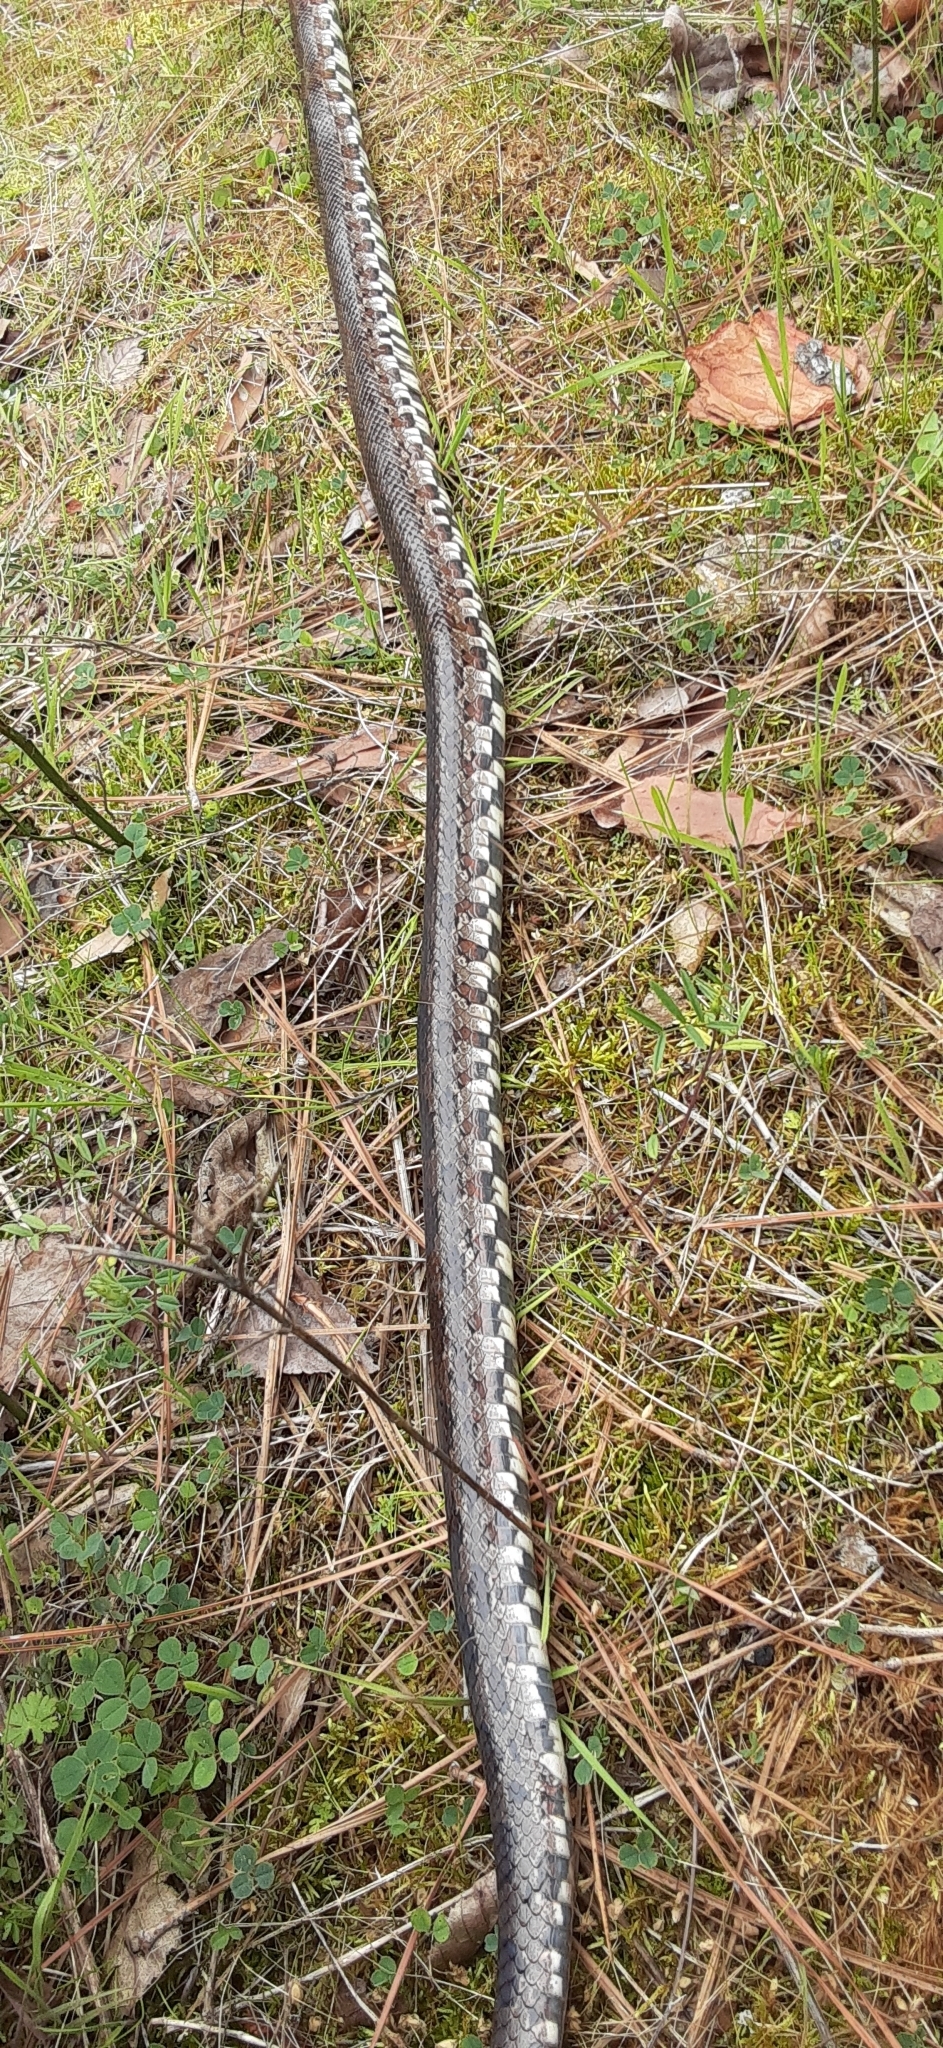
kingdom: Animalia
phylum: Chordata
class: Squamata
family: Colubridae
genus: Pantherophis
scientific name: Pantherophis emoryi
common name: Great plains rat snake
